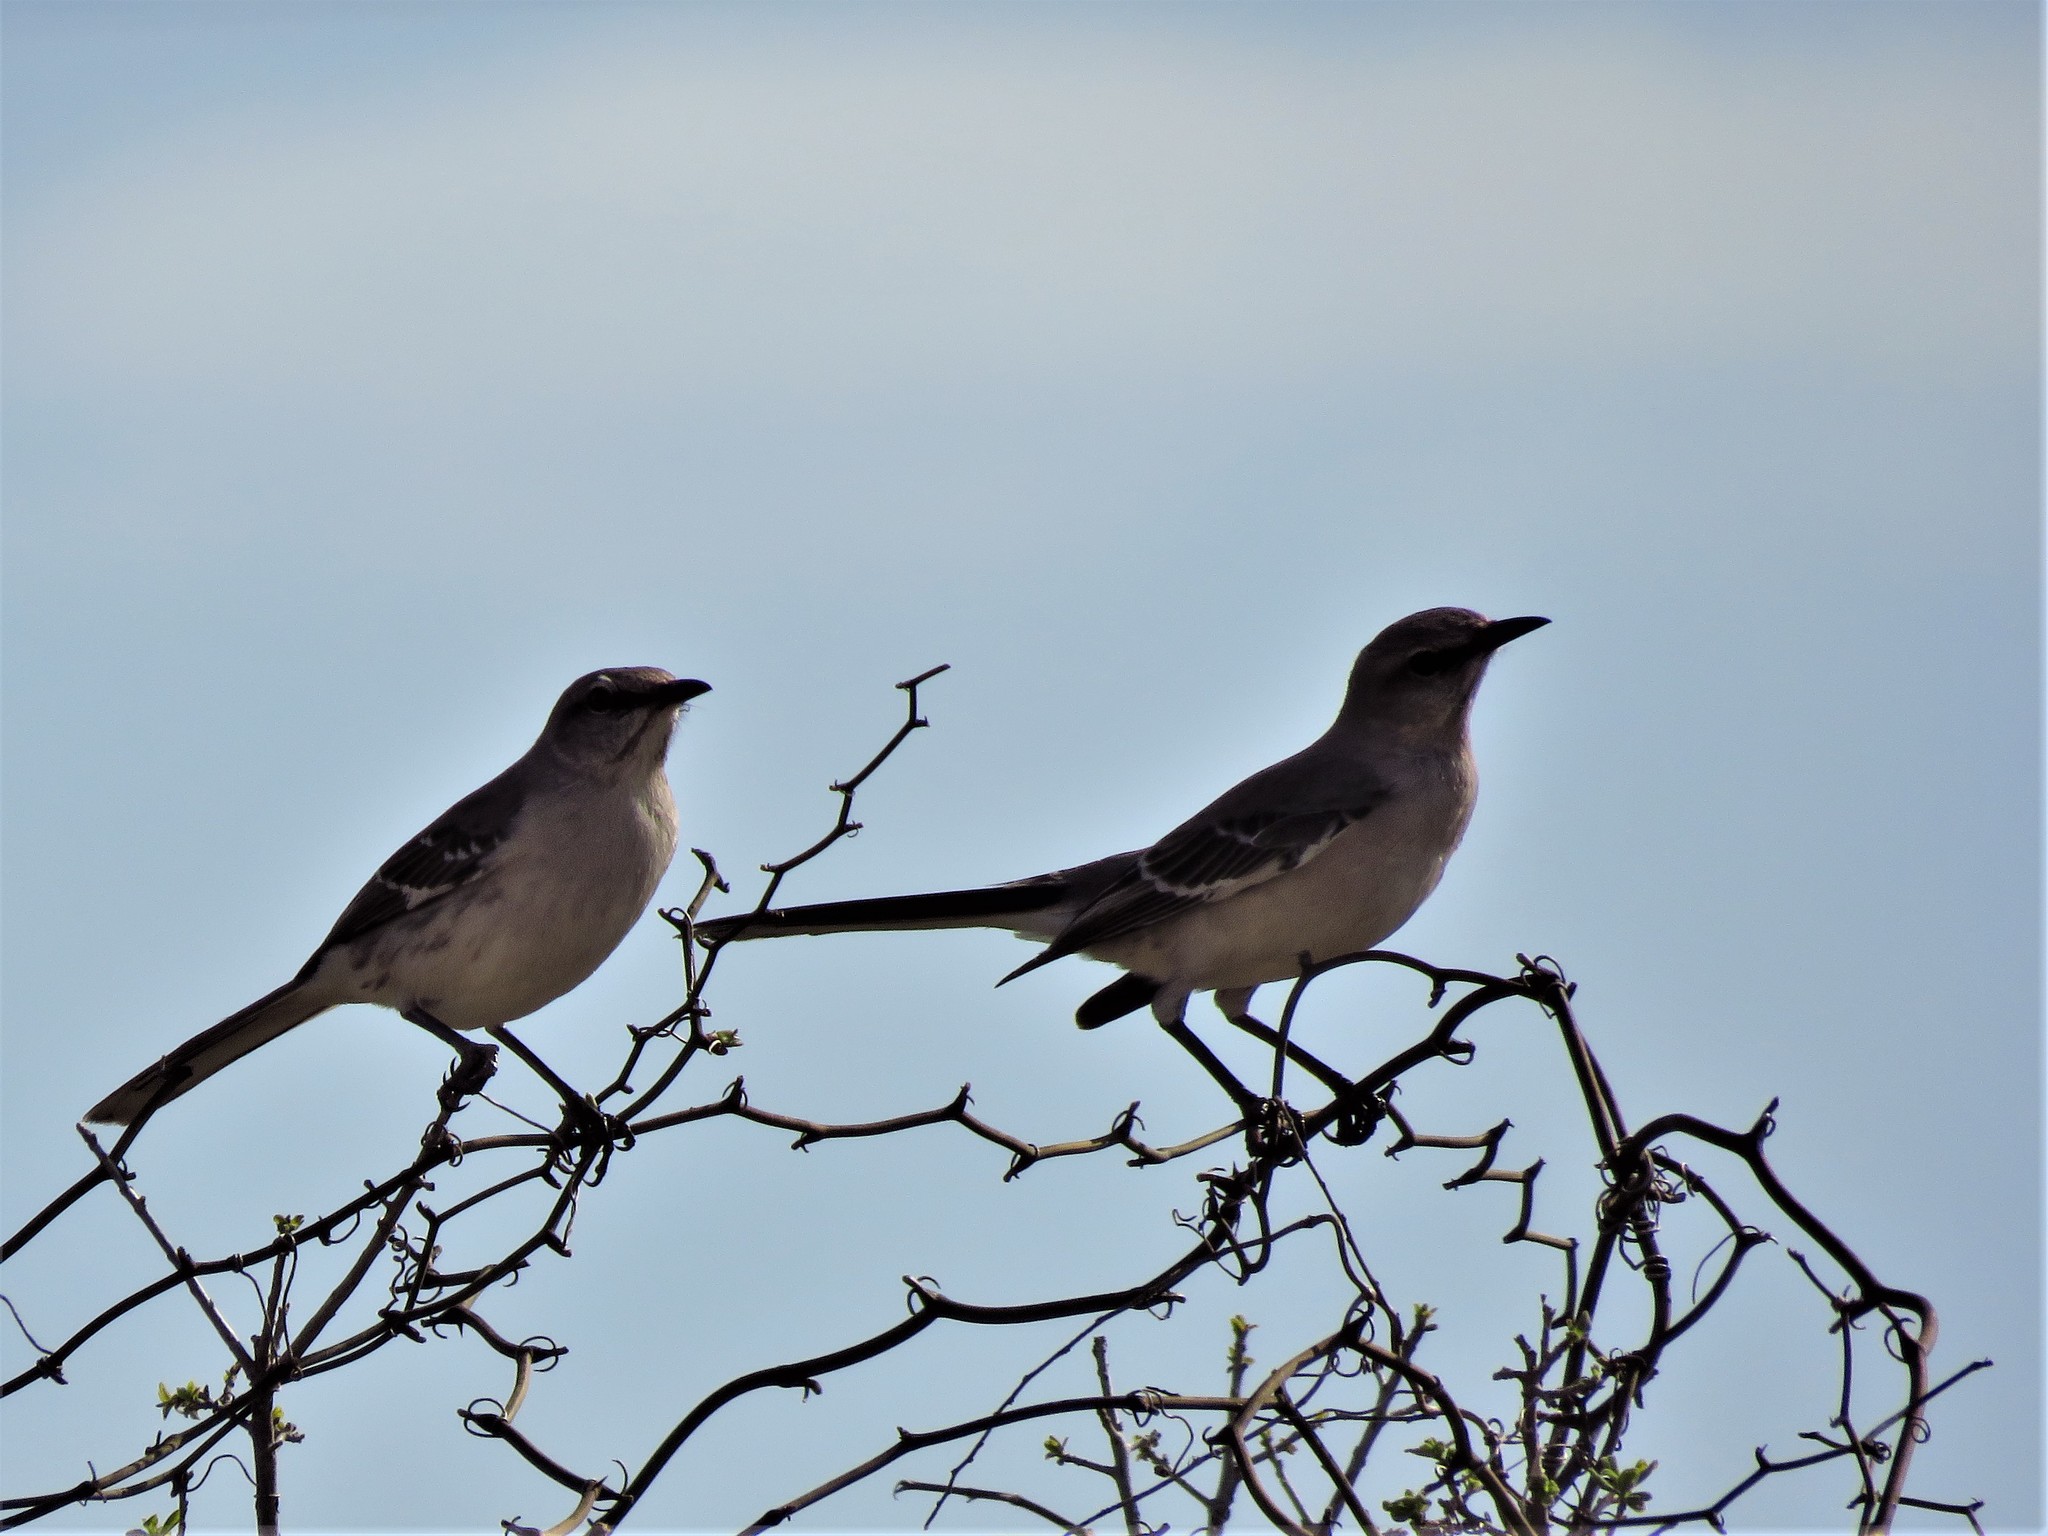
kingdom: Animalia
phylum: Chordata
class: Aves
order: Passeriformes
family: Mimidae
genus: Mimus
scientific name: Mimus polyglottos
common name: Northern mockingbird
